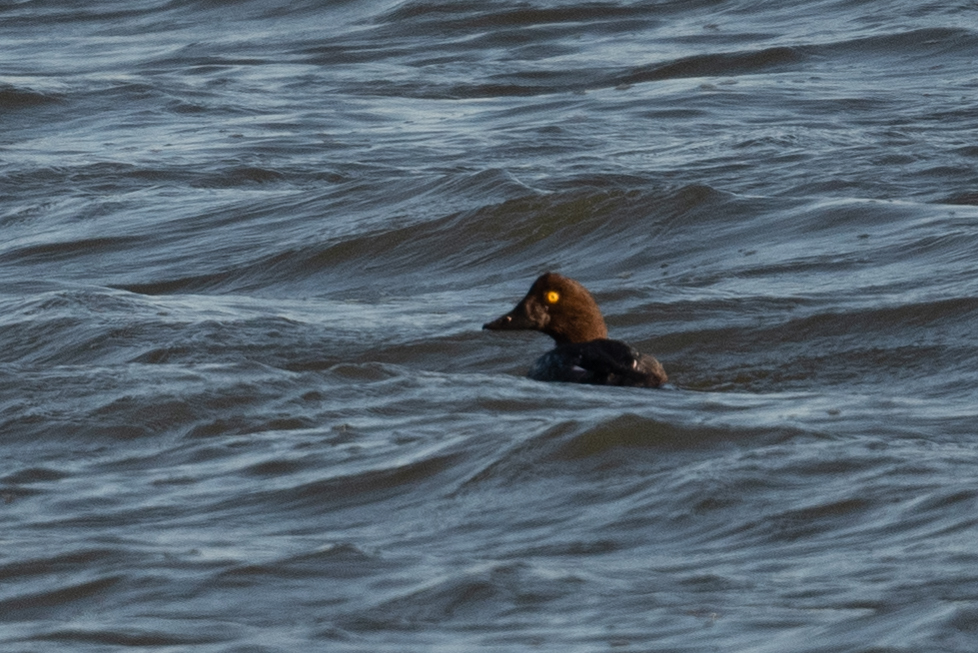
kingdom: Animalia
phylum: Chordata
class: Aves
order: Anseriformes
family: Anatidae
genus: Bucephala
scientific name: Bucephala clangula
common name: Common goldeneye
